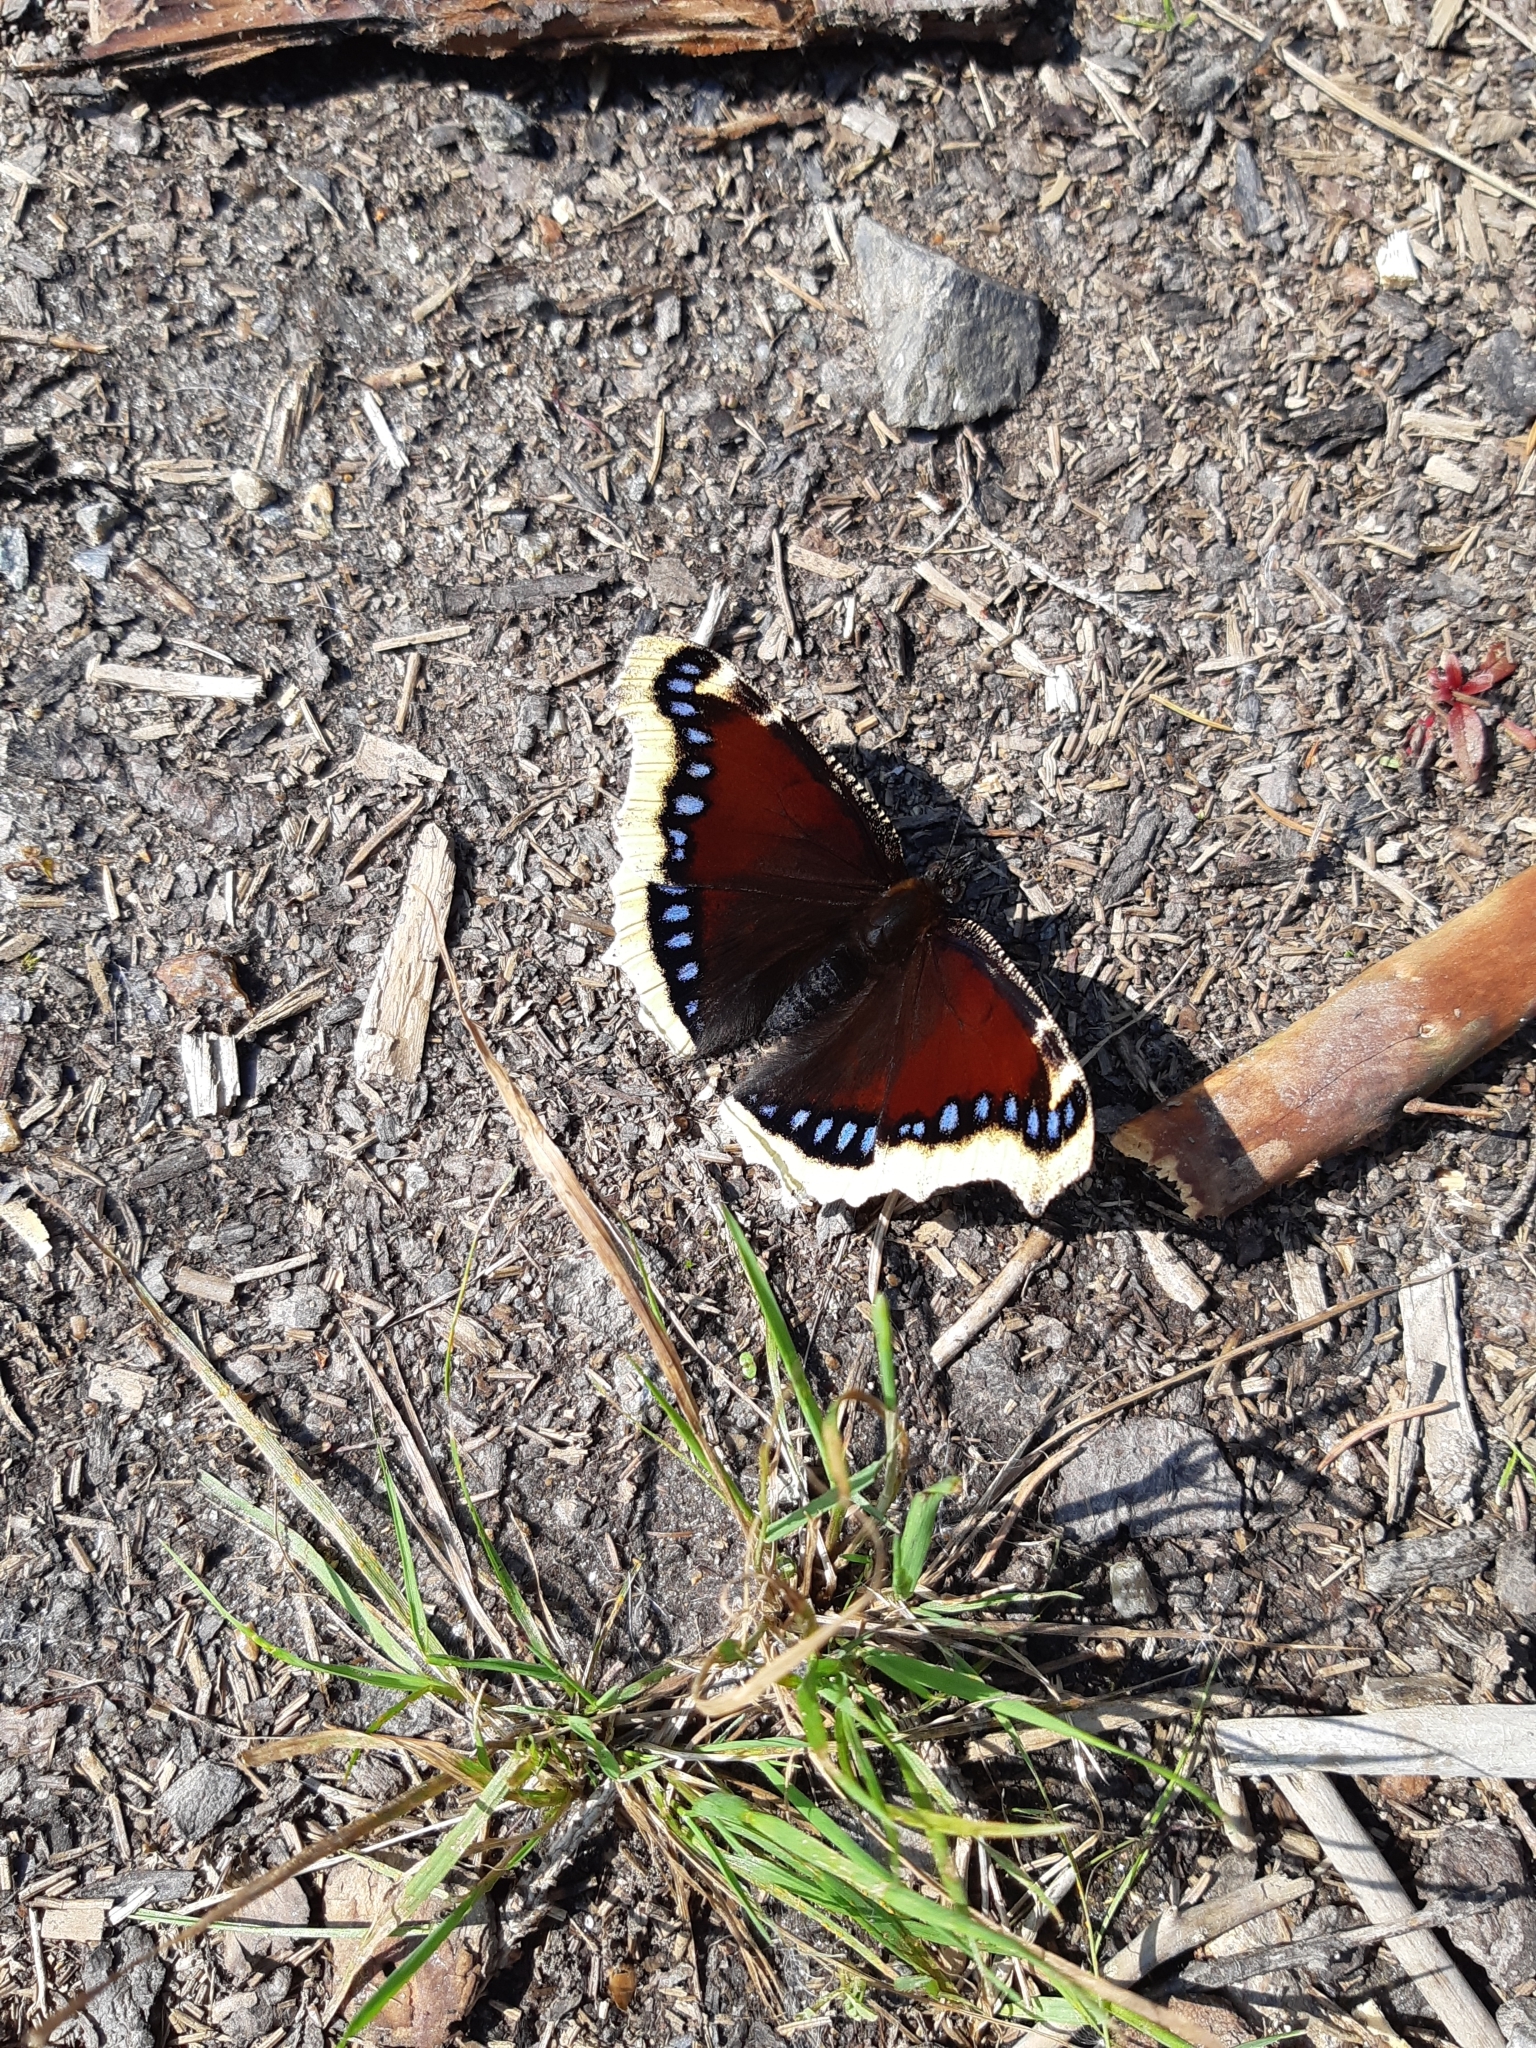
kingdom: Animalia
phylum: Arthropoda
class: Insecta
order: Lepidoptera
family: Nymphalidae
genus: Nymphalis
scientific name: Nymphalis antiopa
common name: Camberwell beauty
